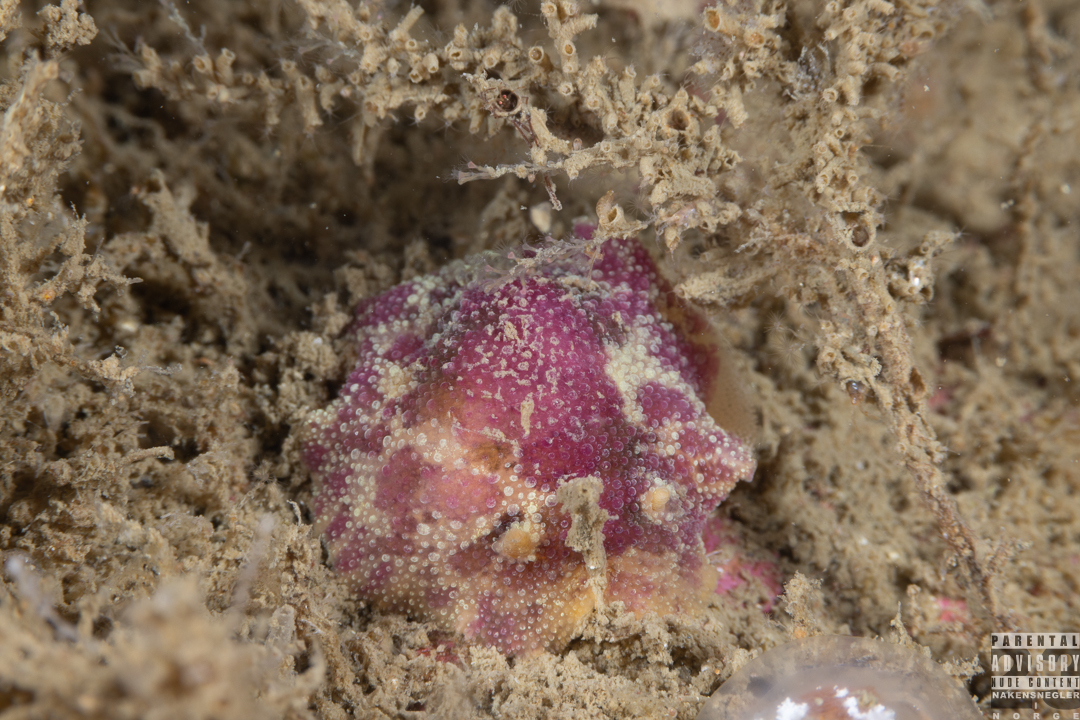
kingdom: Animalia
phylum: Mollusca
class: Gastropoda
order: Nudibranchia
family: Dorididae
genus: Doris
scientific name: Doris pseudoargus
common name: Sea lemon
